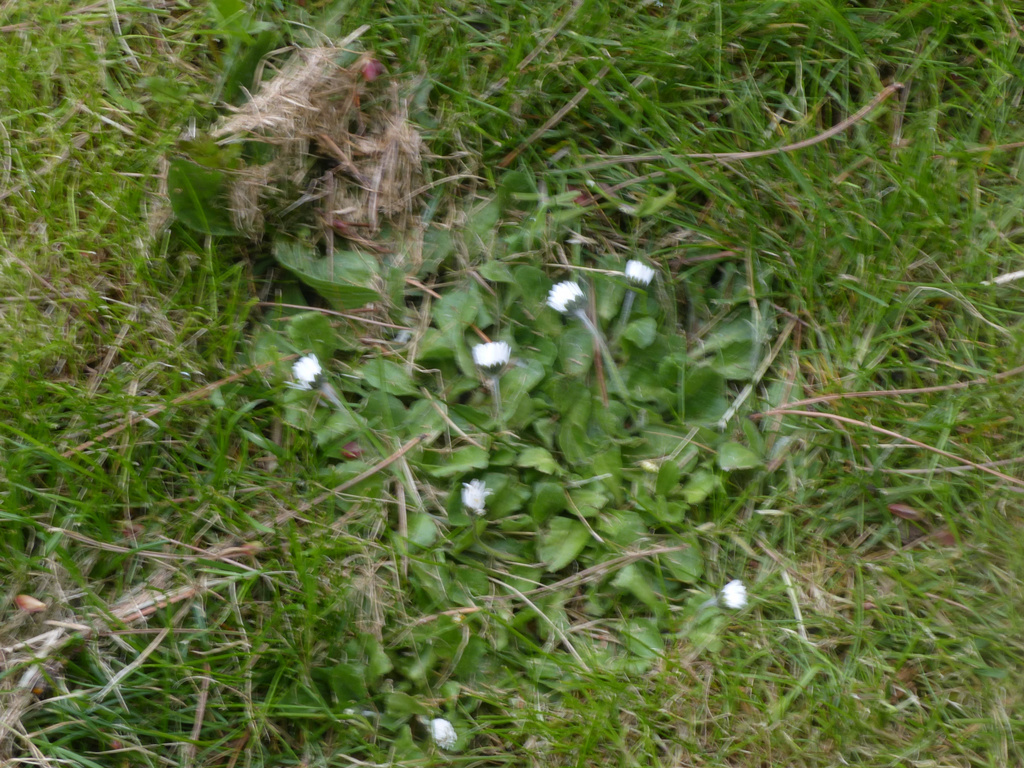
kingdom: Plantae
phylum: Tracheophyta
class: Magnoliopsida
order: Asterales
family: Asteraceae
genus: Bellis
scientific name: Bellis perennis
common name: Lawndaisy
